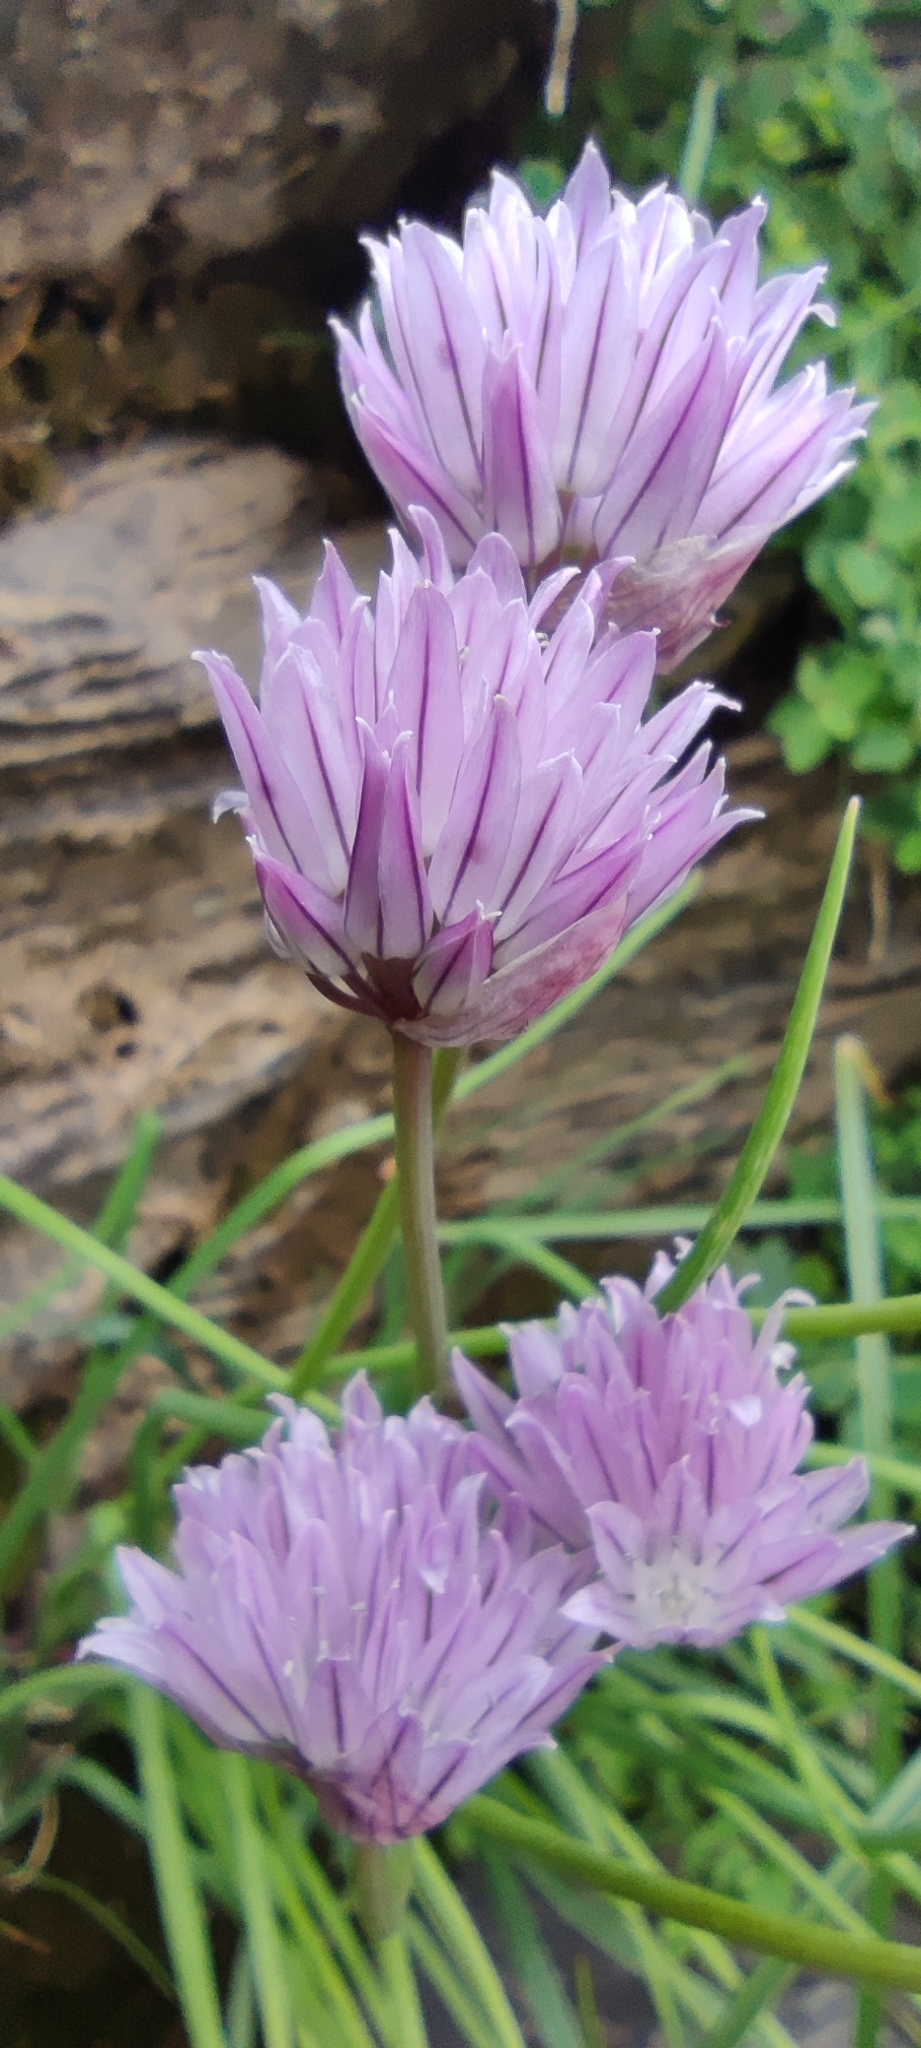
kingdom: Plantae
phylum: Tracheophyta
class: Liliopsida
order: Asparagales
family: Amaryllidaceae
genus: Allium
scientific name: Allium schoenoprasum
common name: Chives
